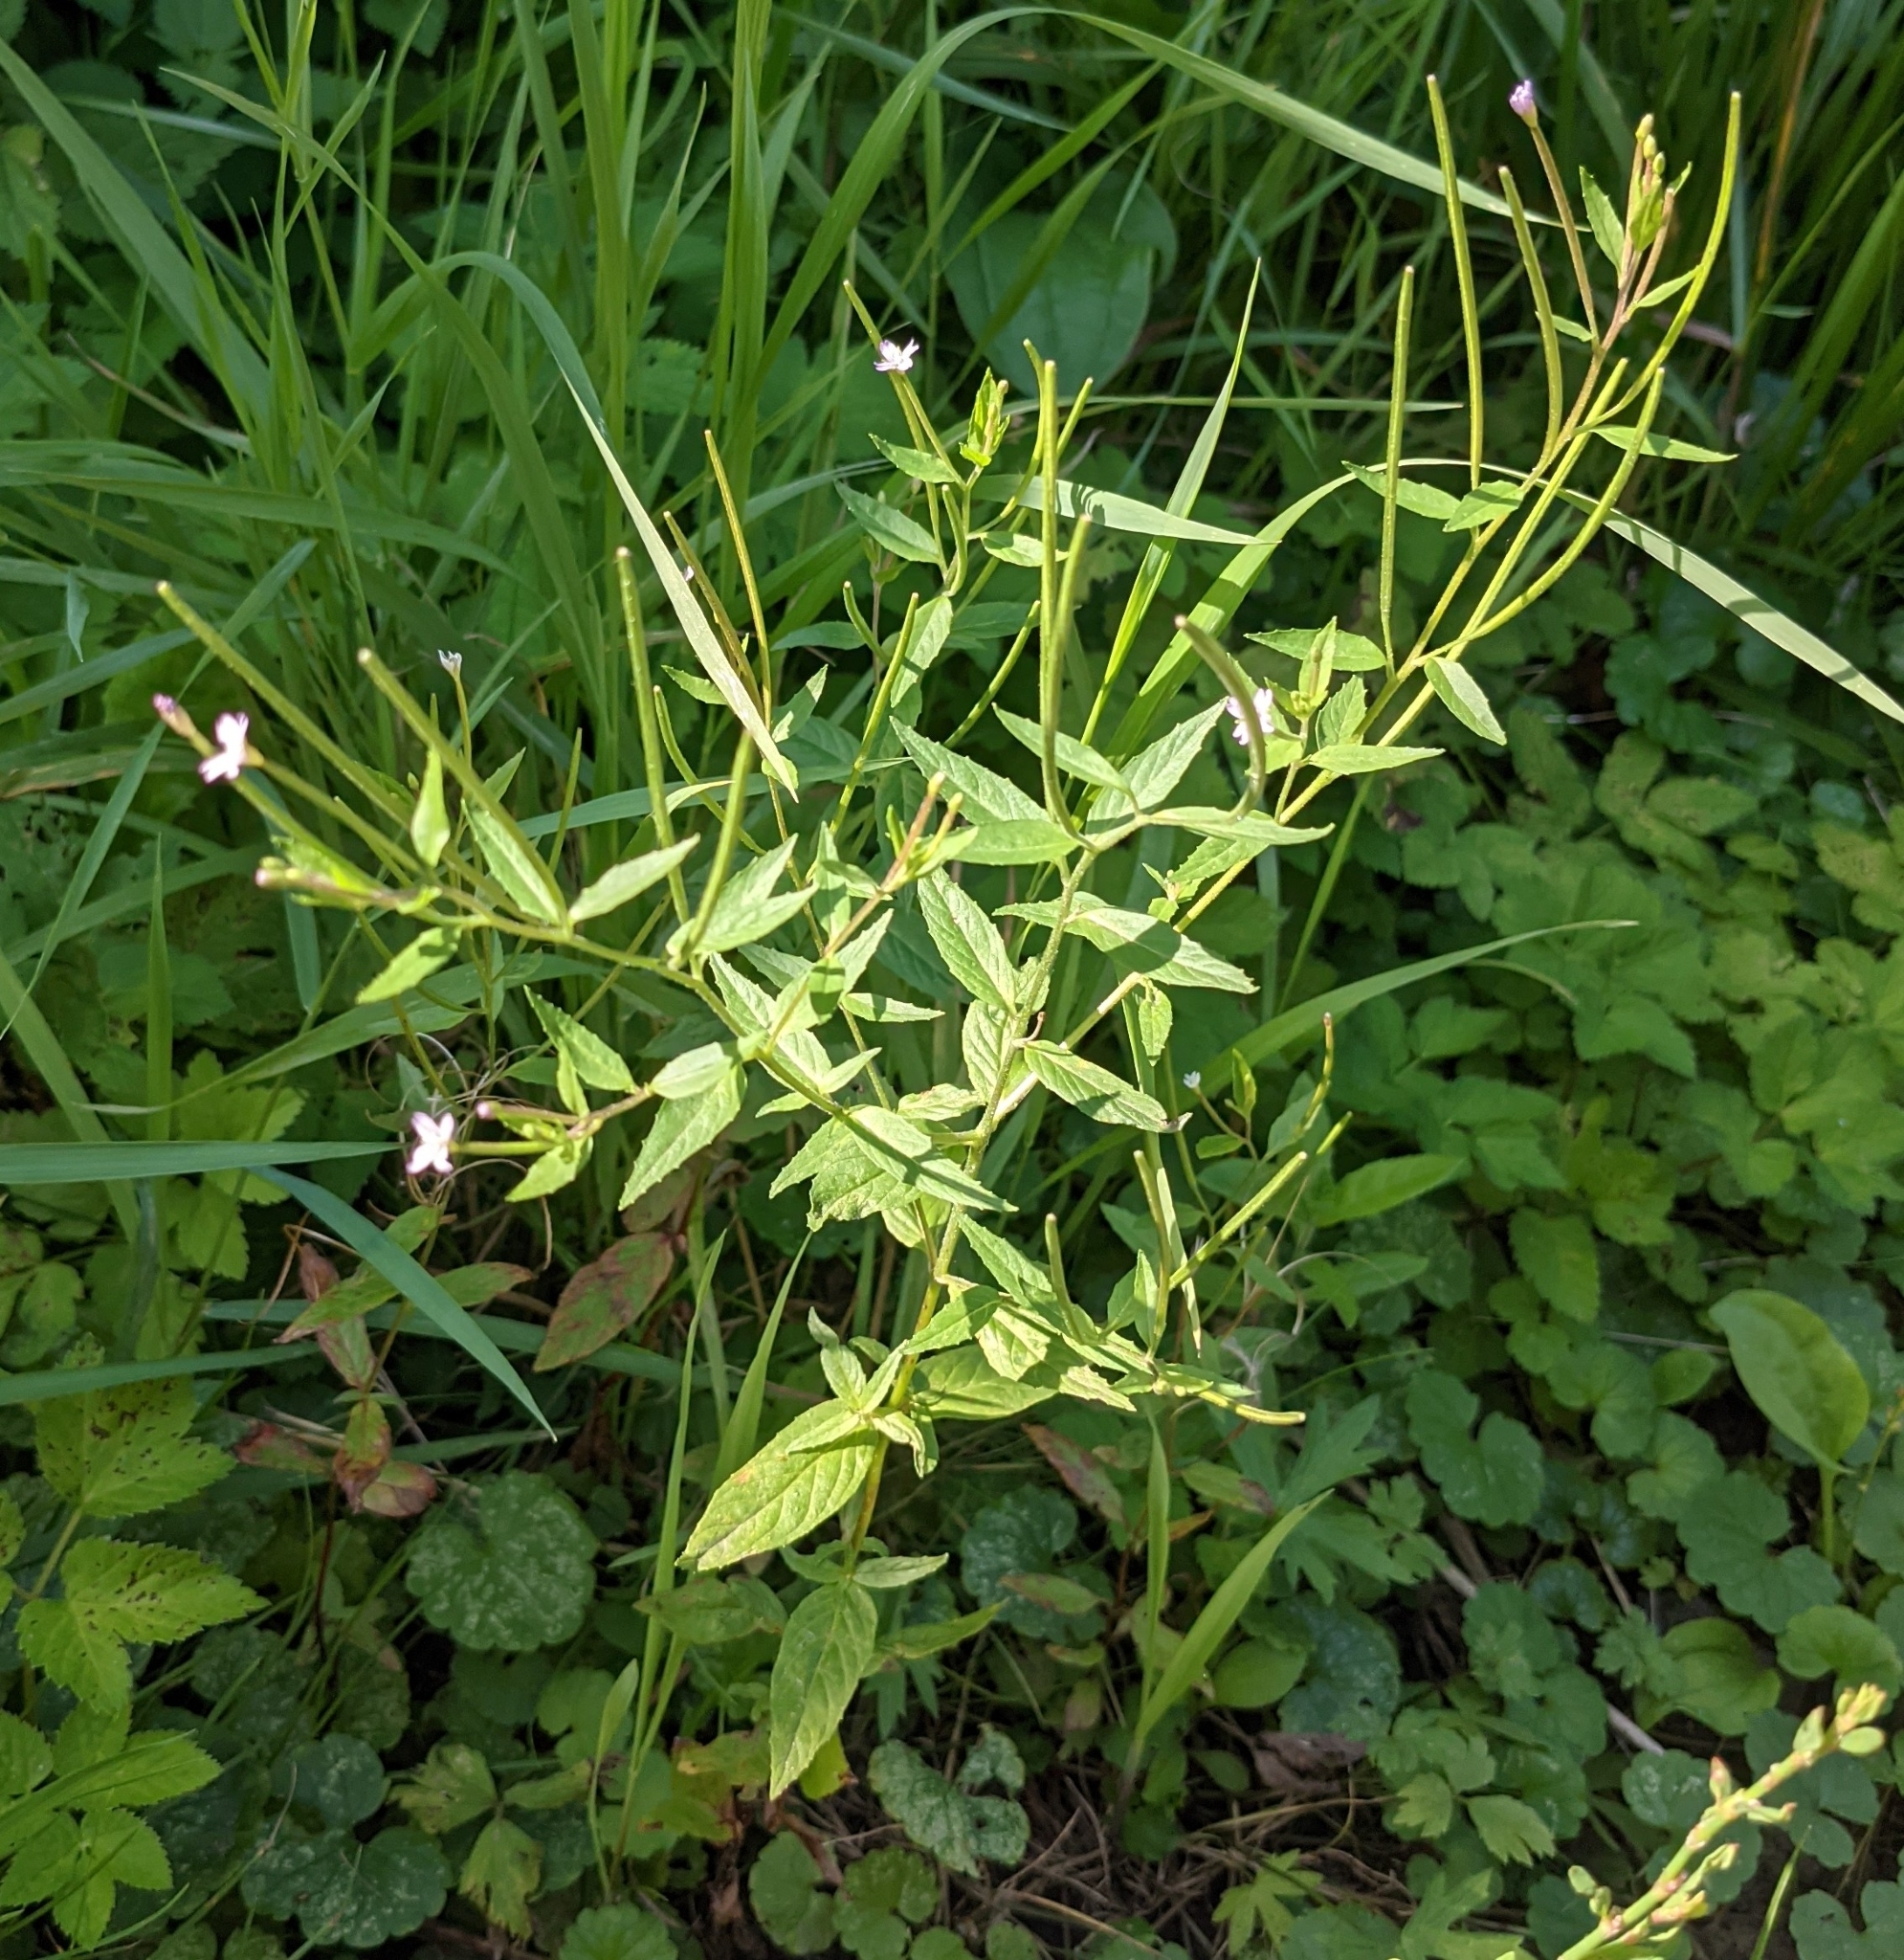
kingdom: Plantae
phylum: Tracheophyta
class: Magnoliopsida
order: Myrtales
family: Onagraceae
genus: Epilobium
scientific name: Epilobium ciliatum
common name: American willowherb
